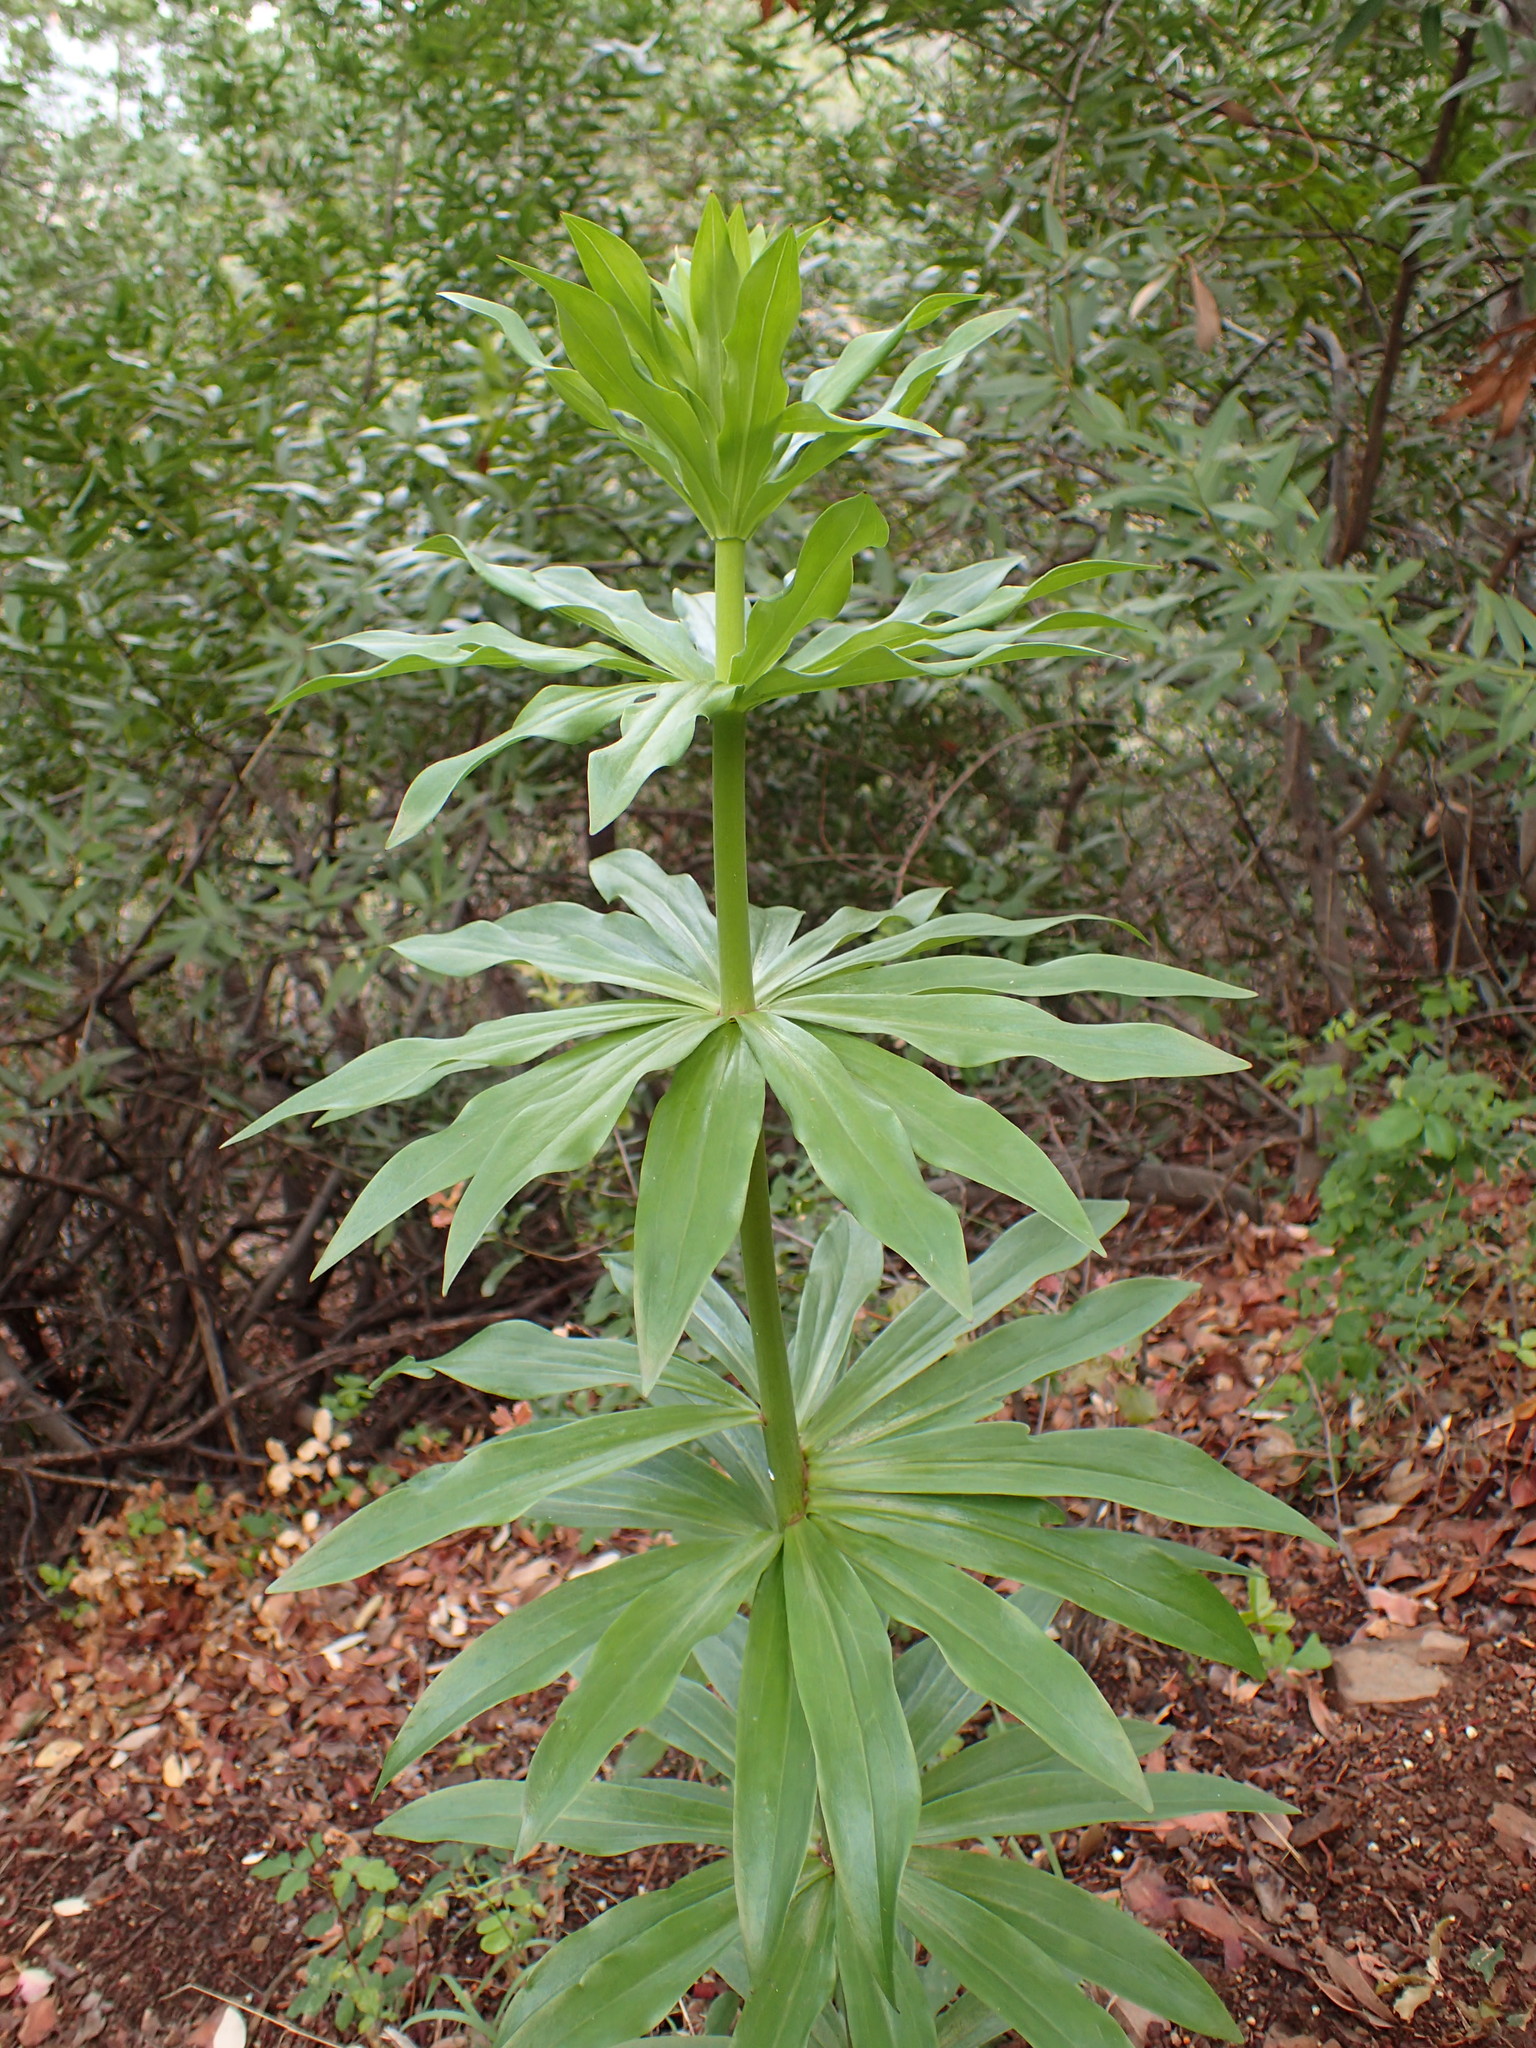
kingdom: Plantae
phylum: Tracheophyta
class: Liliopsida
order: Liliales
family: Liliaceae
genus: Lilium
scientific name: Lilium humboldtii
